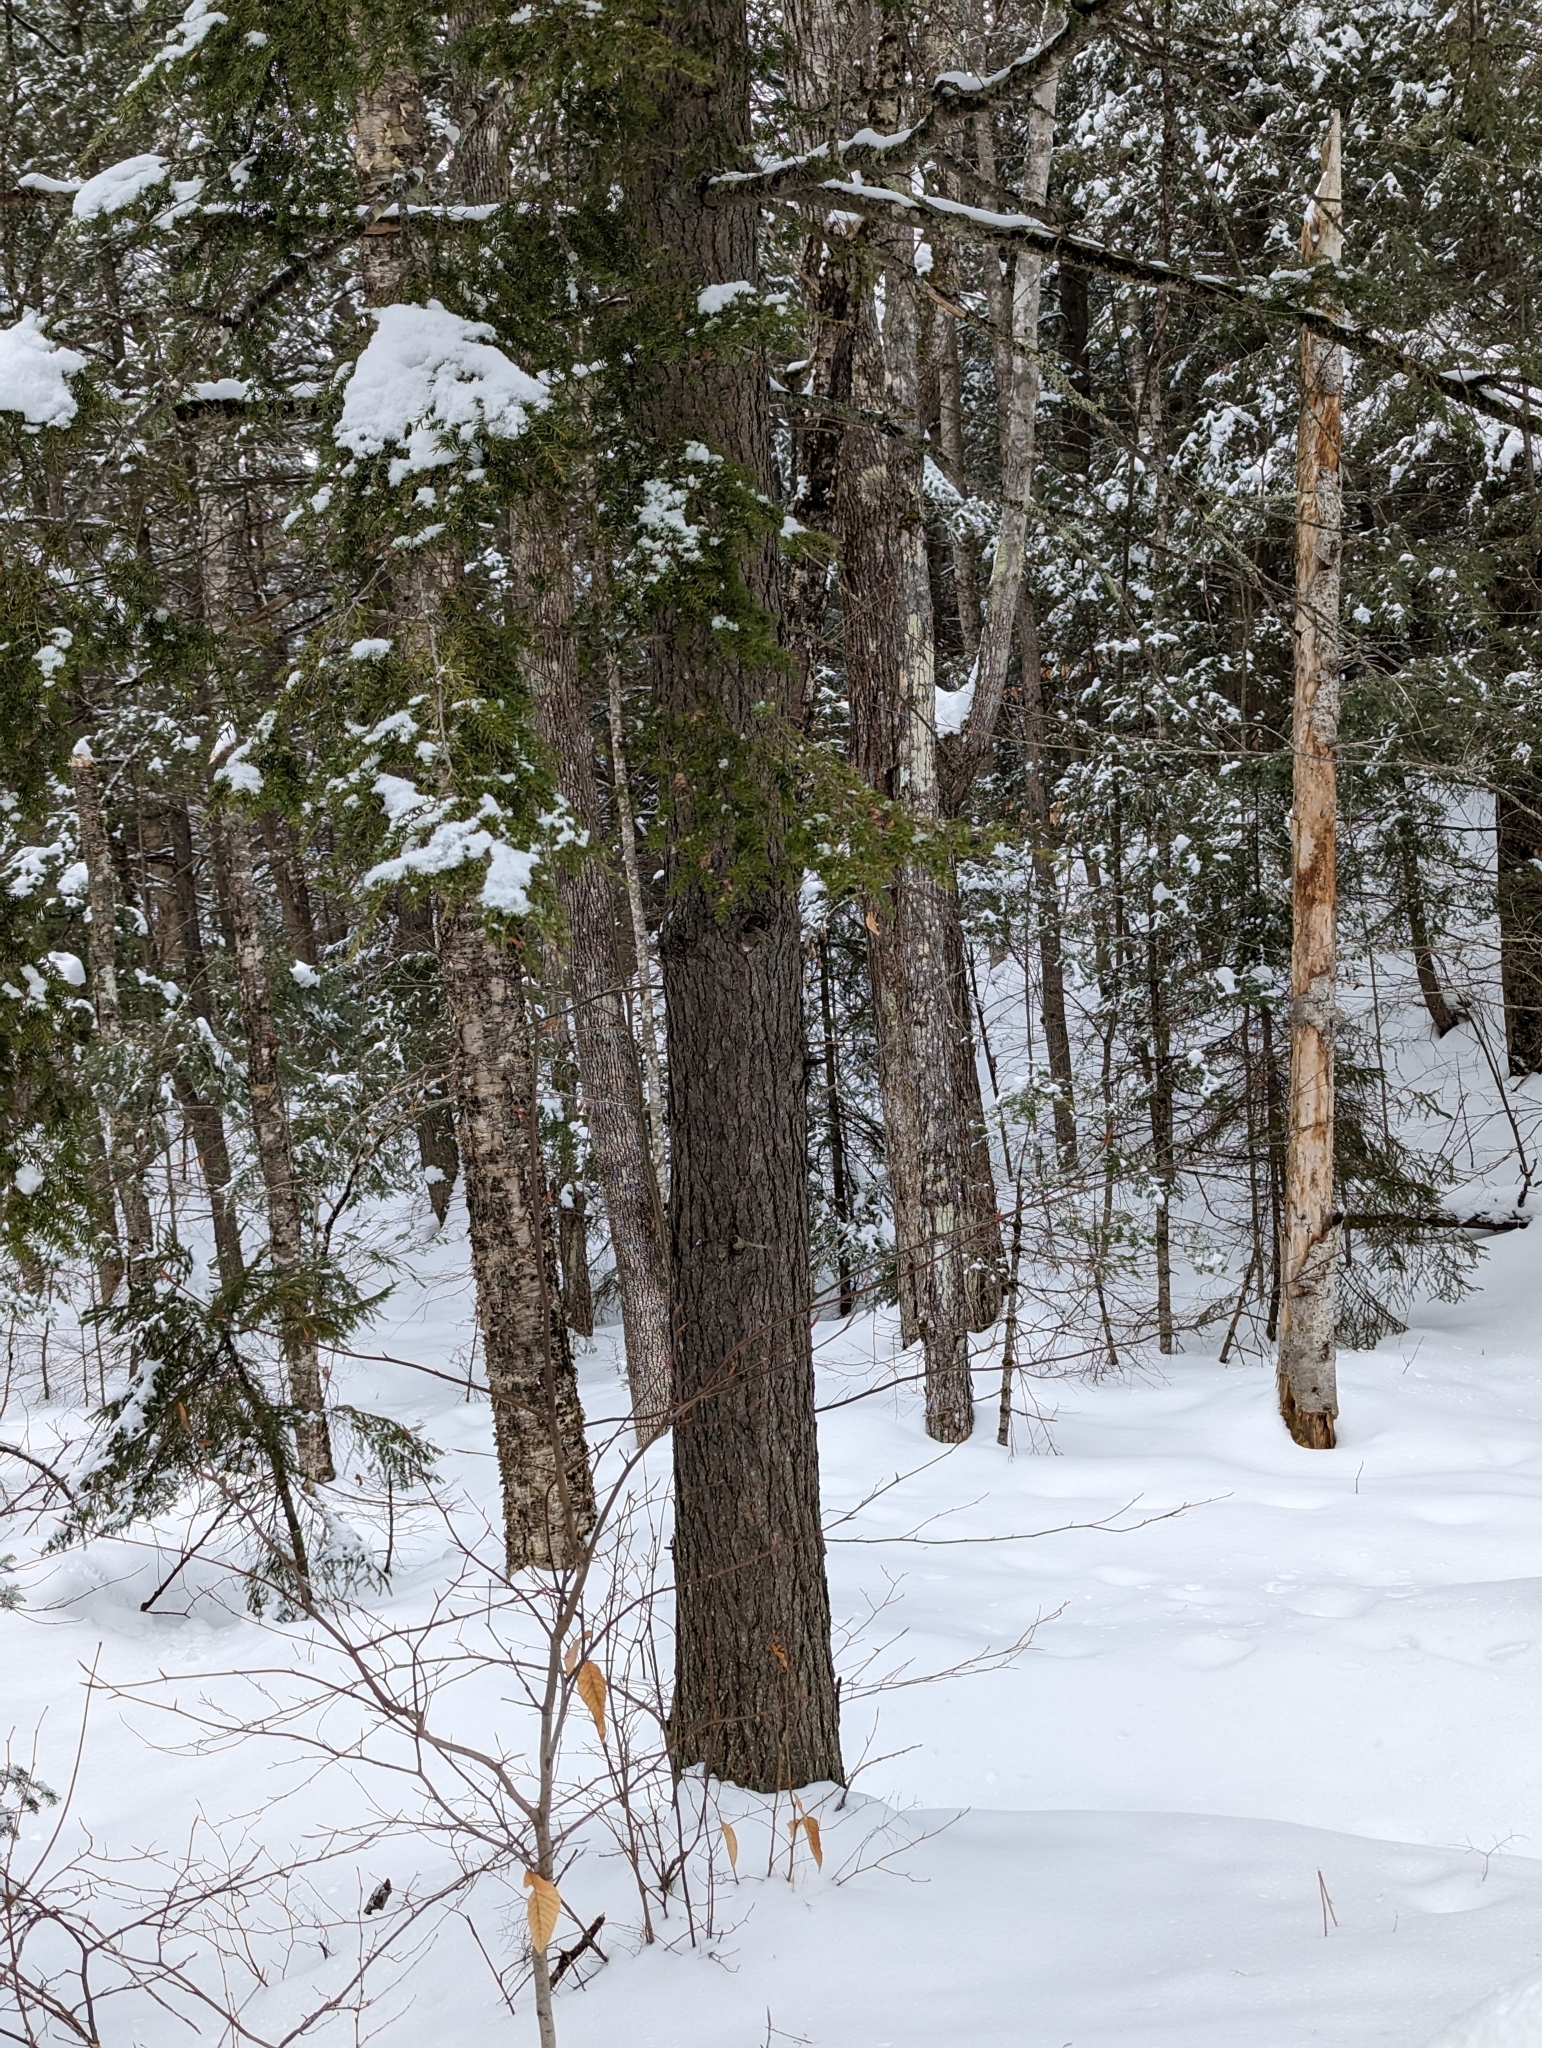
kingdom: Plantae
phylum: Tracheophyta
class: Pinopsida
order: Pinales
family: Pinaceae
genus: Tsuga
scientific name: Tsuga canadensis
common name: Eastern hemlock
